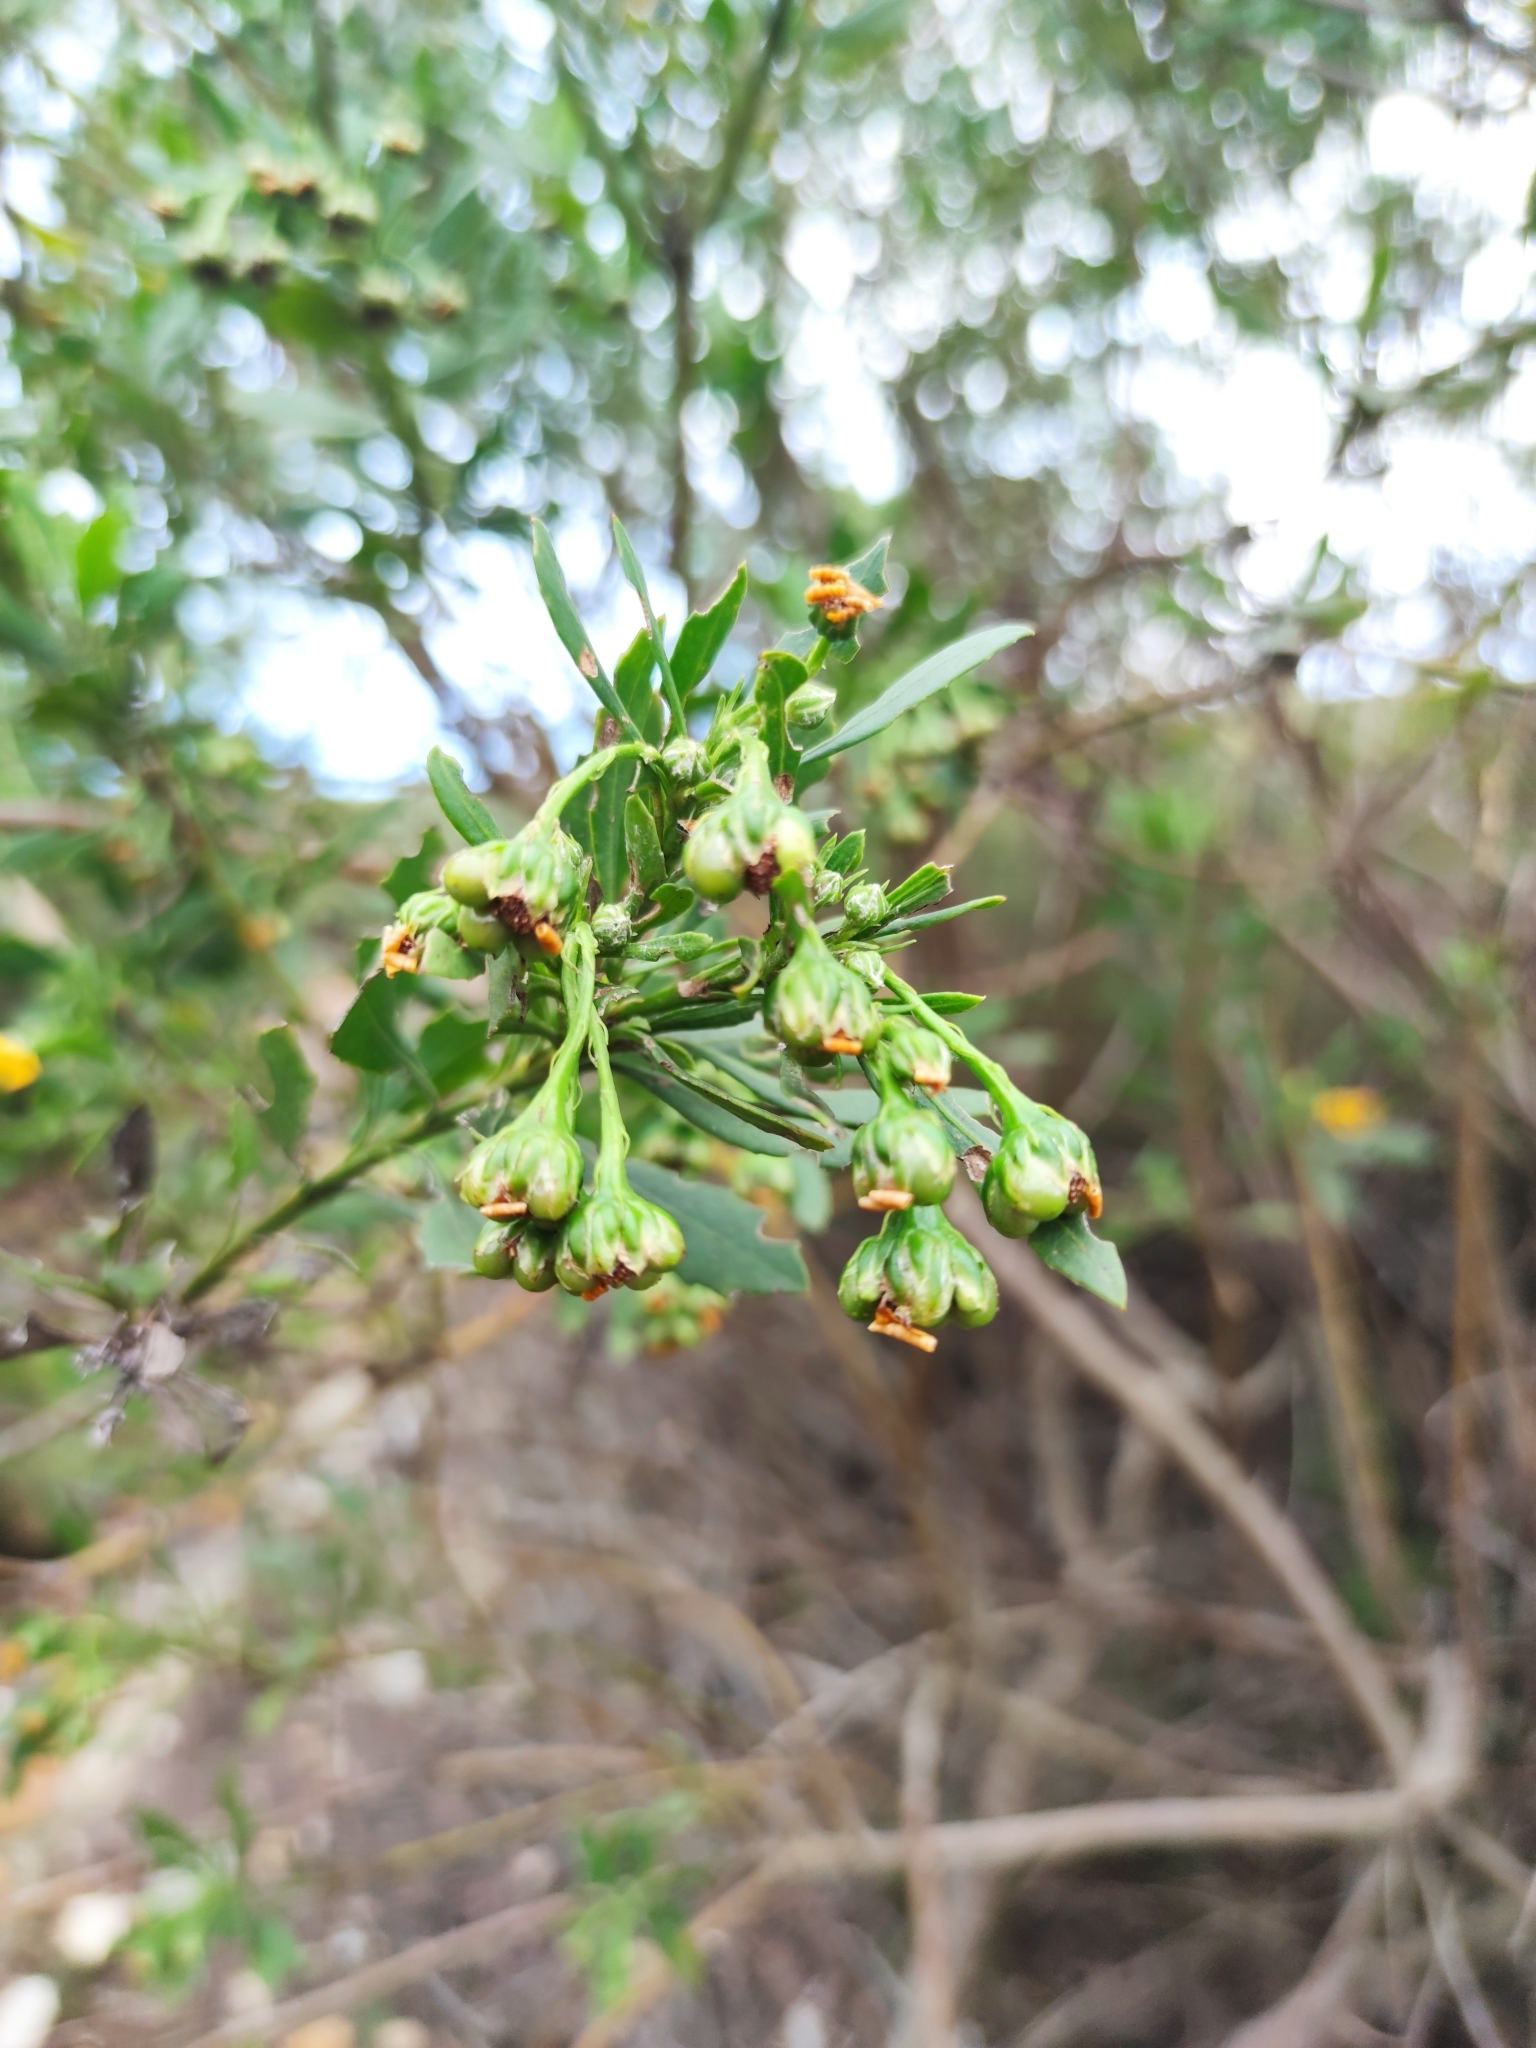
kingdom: Plantae
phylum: Tracheophyta
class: Magnoliopsida
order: Asterales
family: Asteraceae
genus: Osteospermum
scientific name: Osteospermum moniliferum
